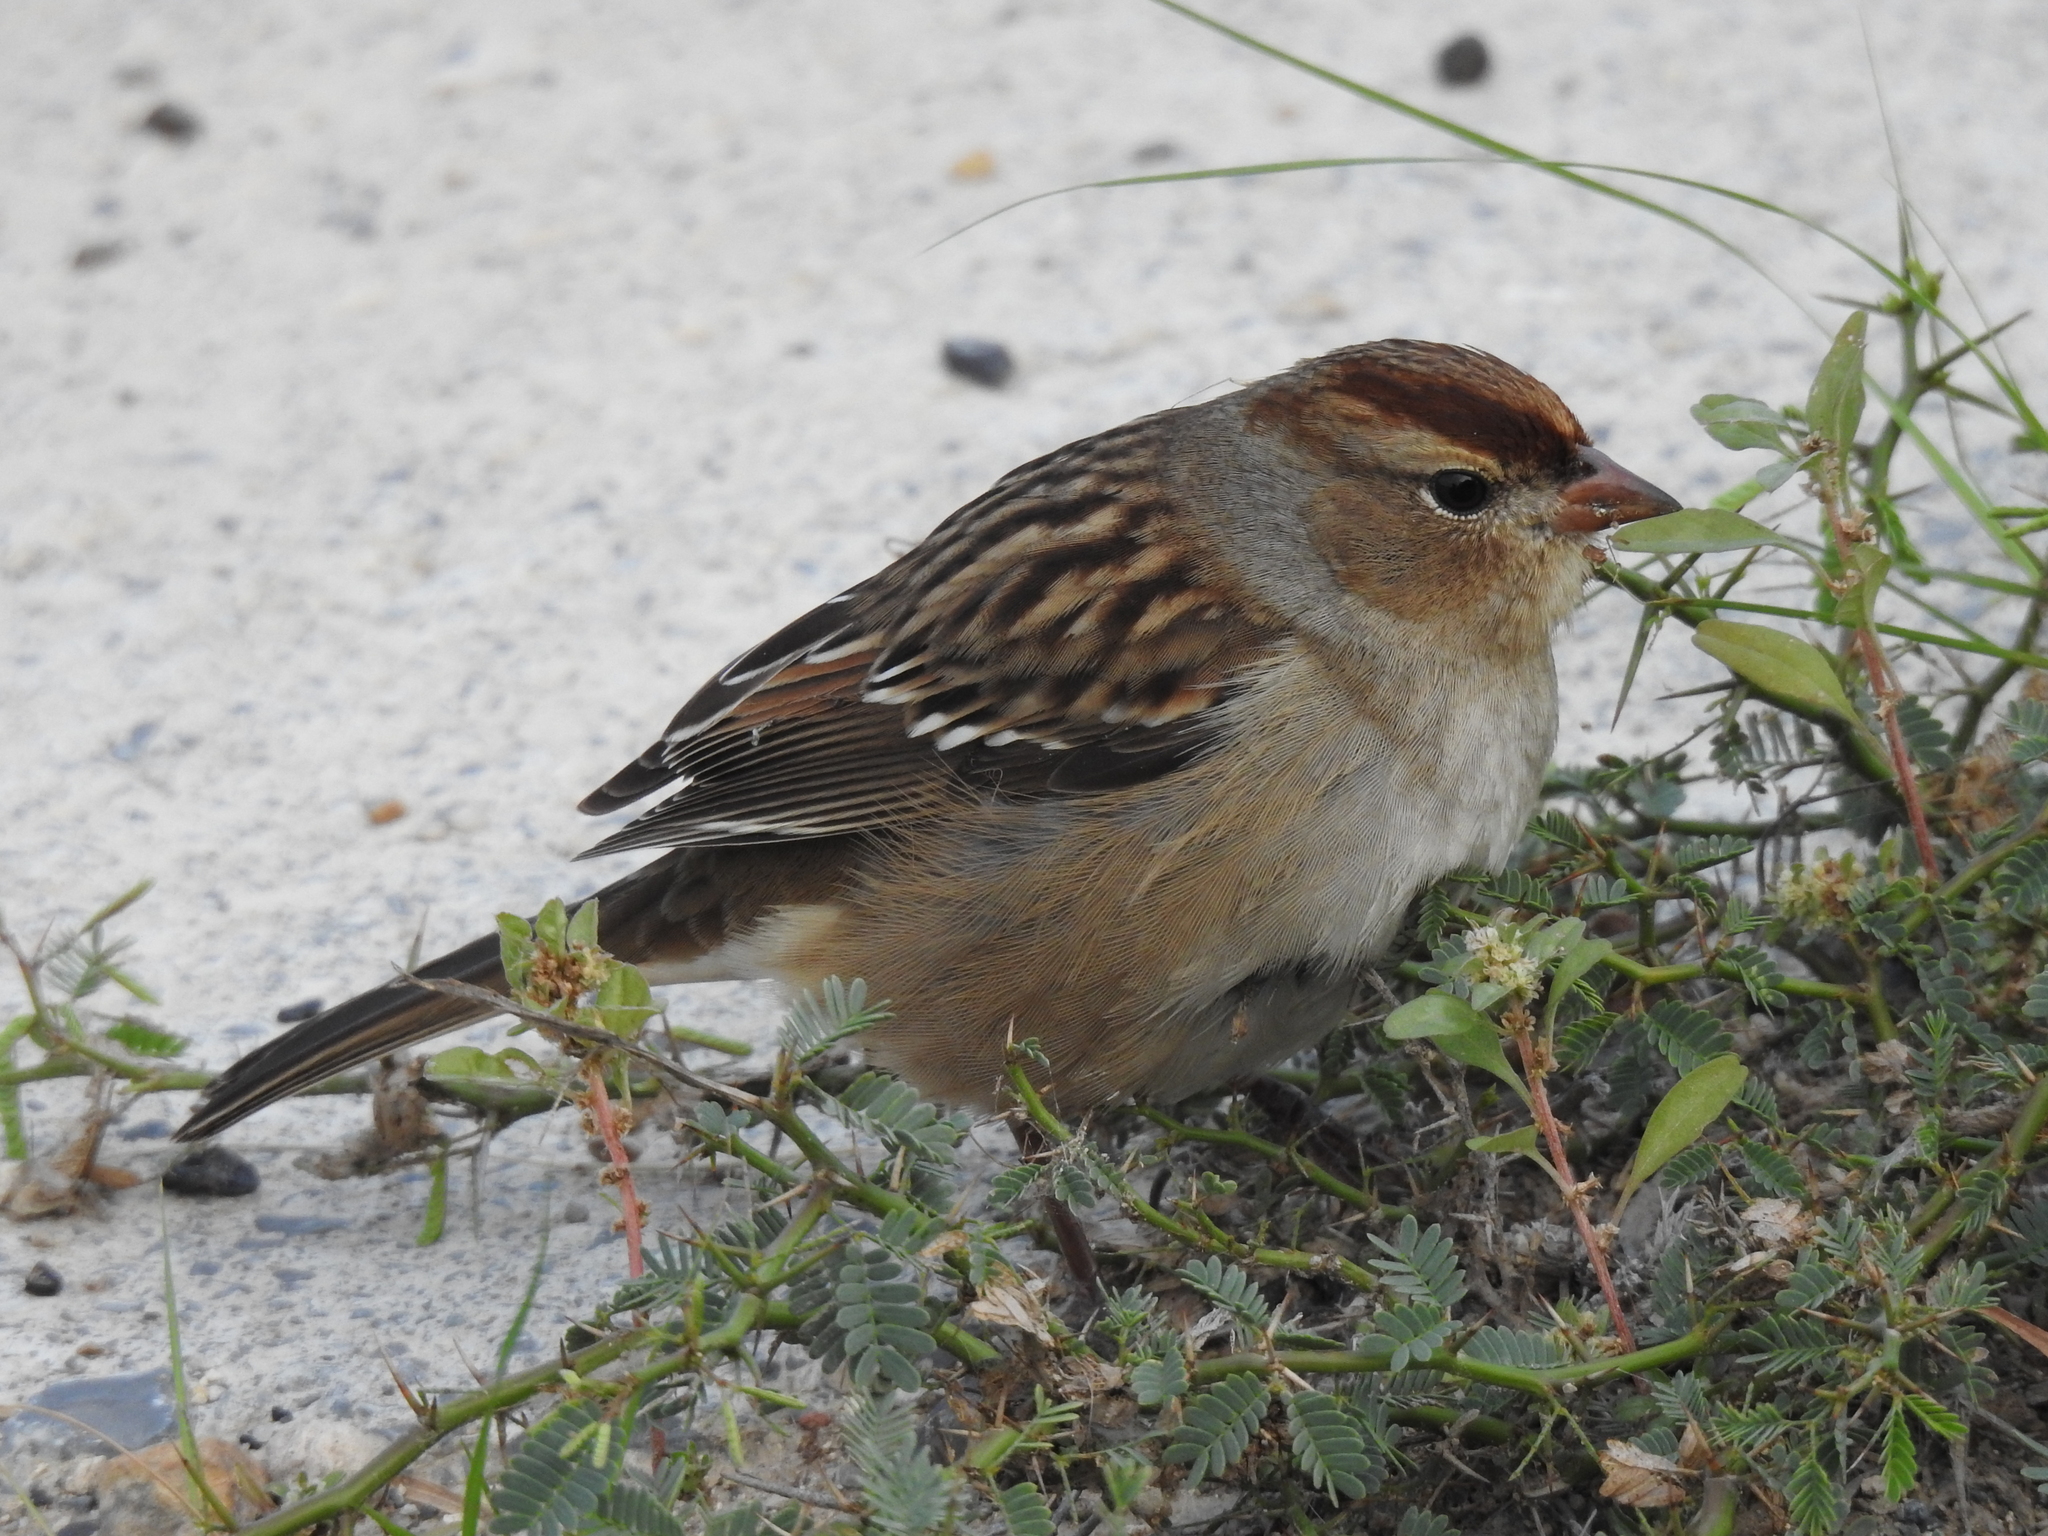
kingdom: Animalia
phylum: Chordata
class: Aves
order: Passeriformes
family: Passerellidae
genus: Zonotrichia
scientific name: Zonotrichia leucophrys
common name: White-crowned sparrow
